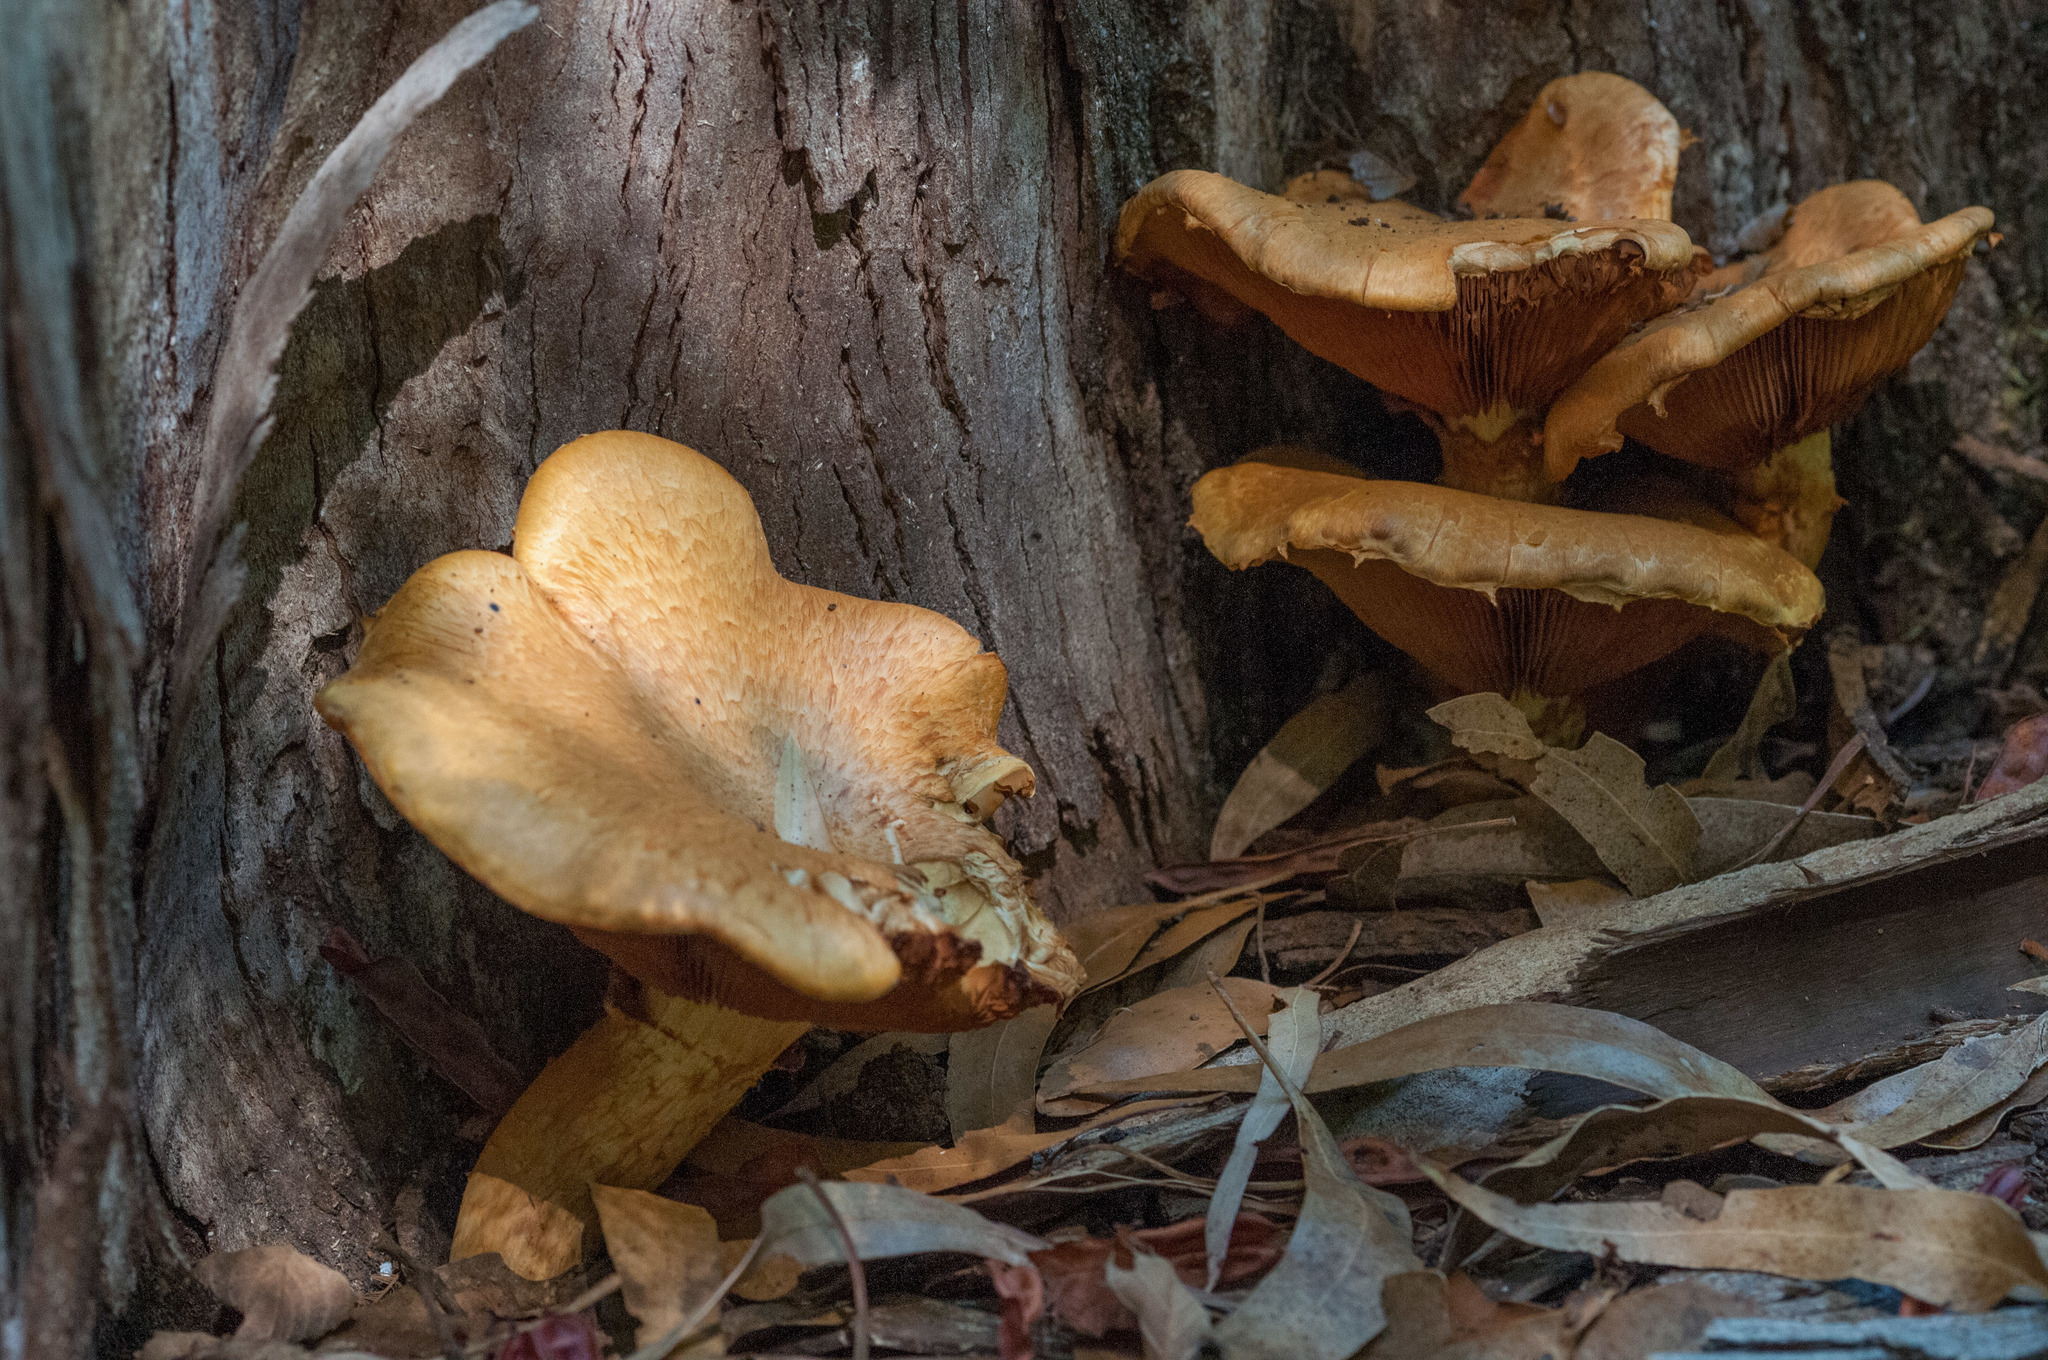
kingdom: Fungi
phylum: Basidiomycota
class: Agaricomycetes
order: Agaricales
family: Hymenogastraceae
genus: Gymnopilus
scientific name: Gymnopilus junonius
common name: Spectacular rustgill
